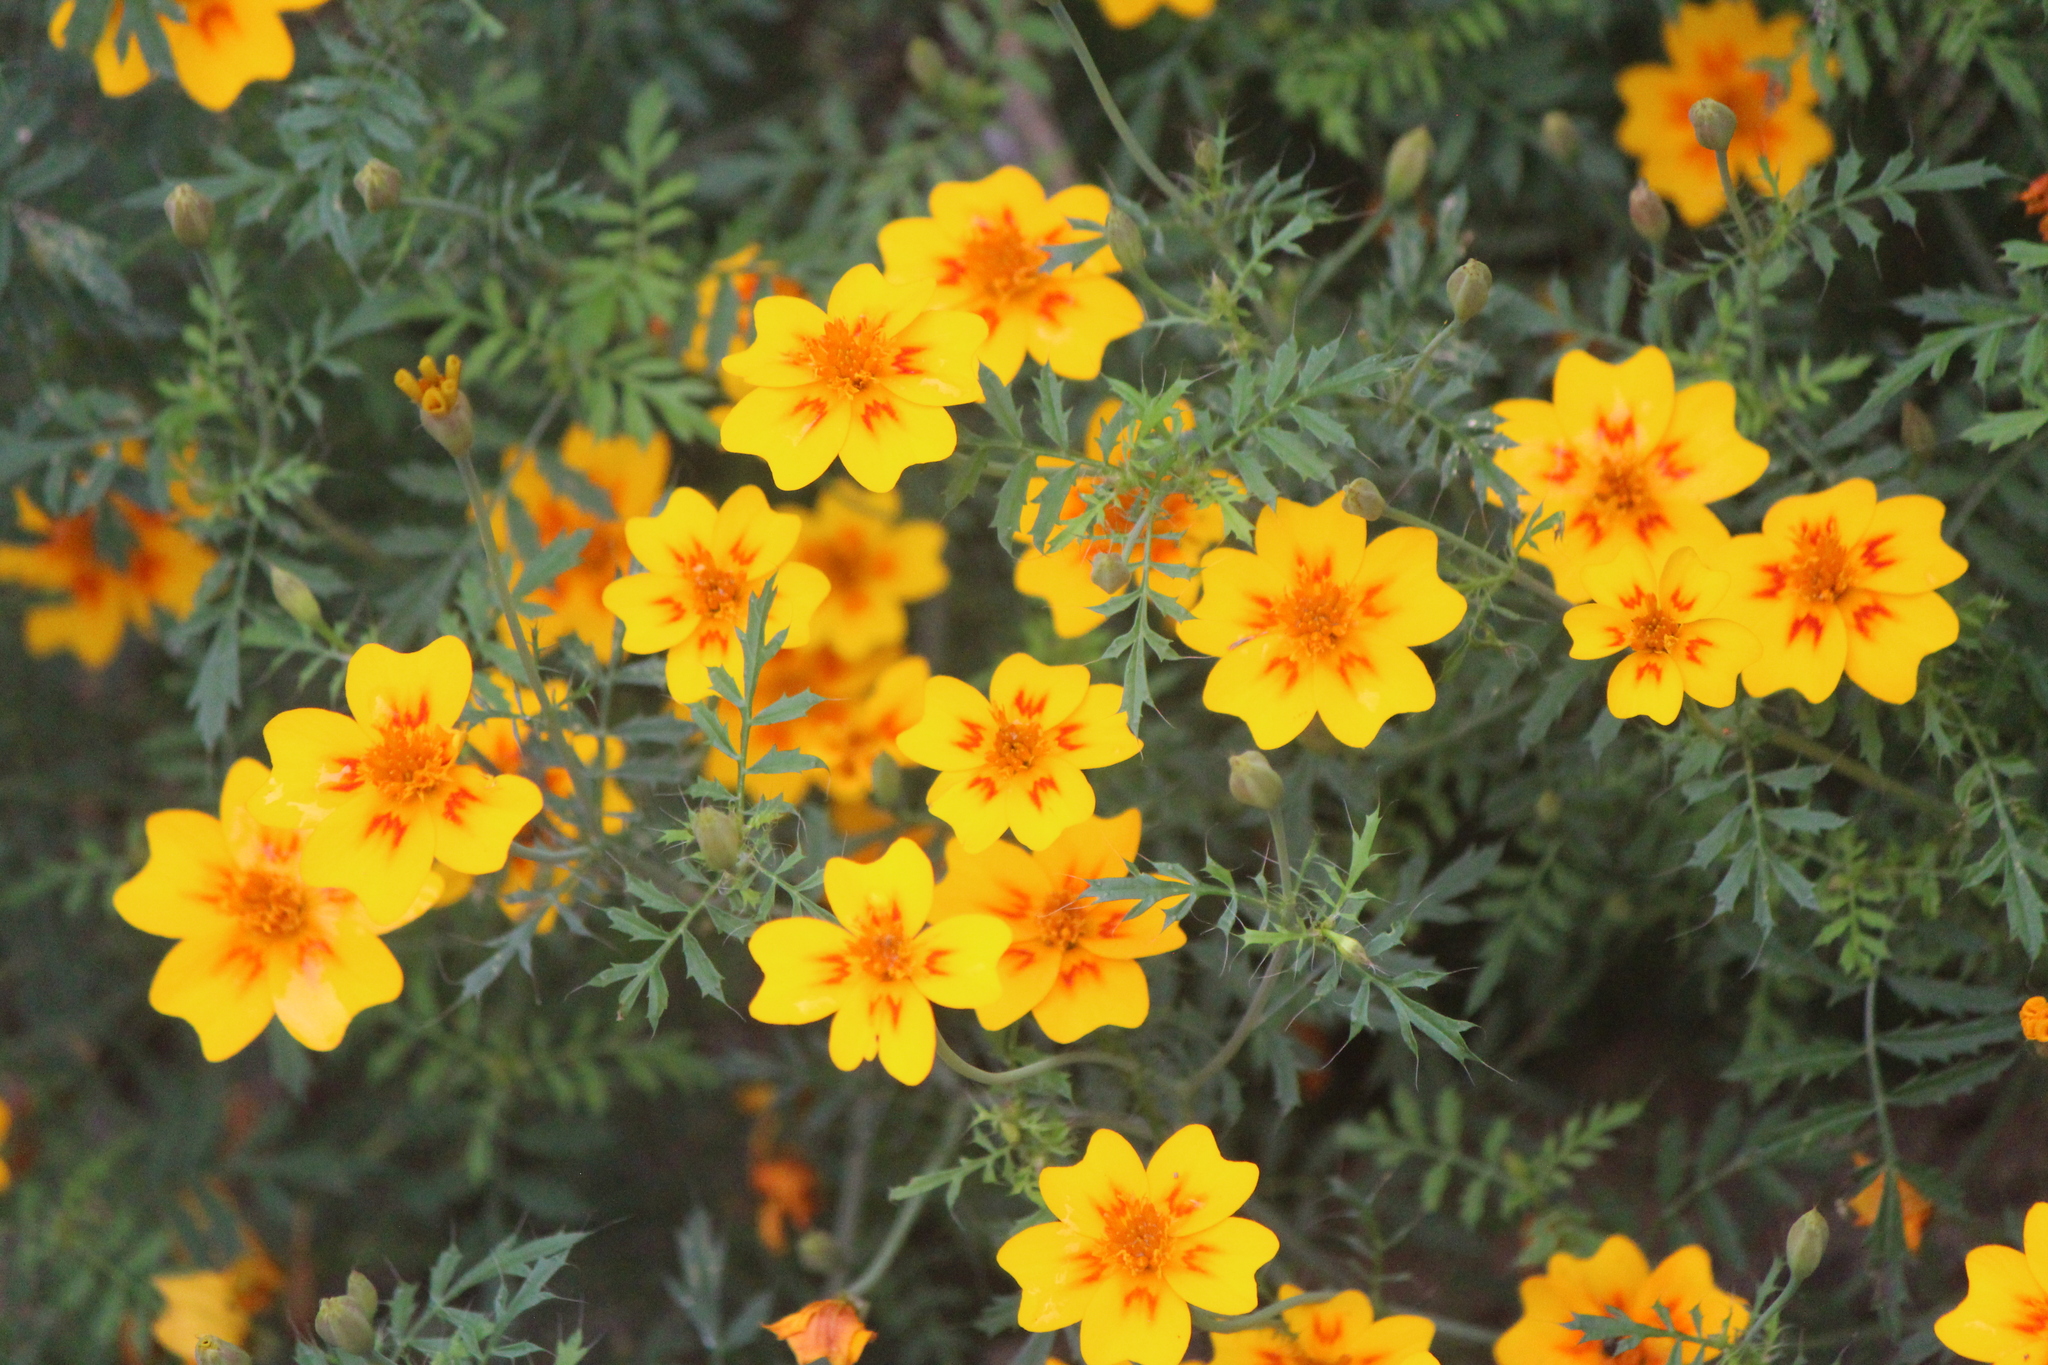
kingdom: Plantae
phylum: Tracheophyta
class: Magnoliopsida
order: Asterales
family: Asteraceae
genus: Tagetes
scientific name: Tagetes lunulata
